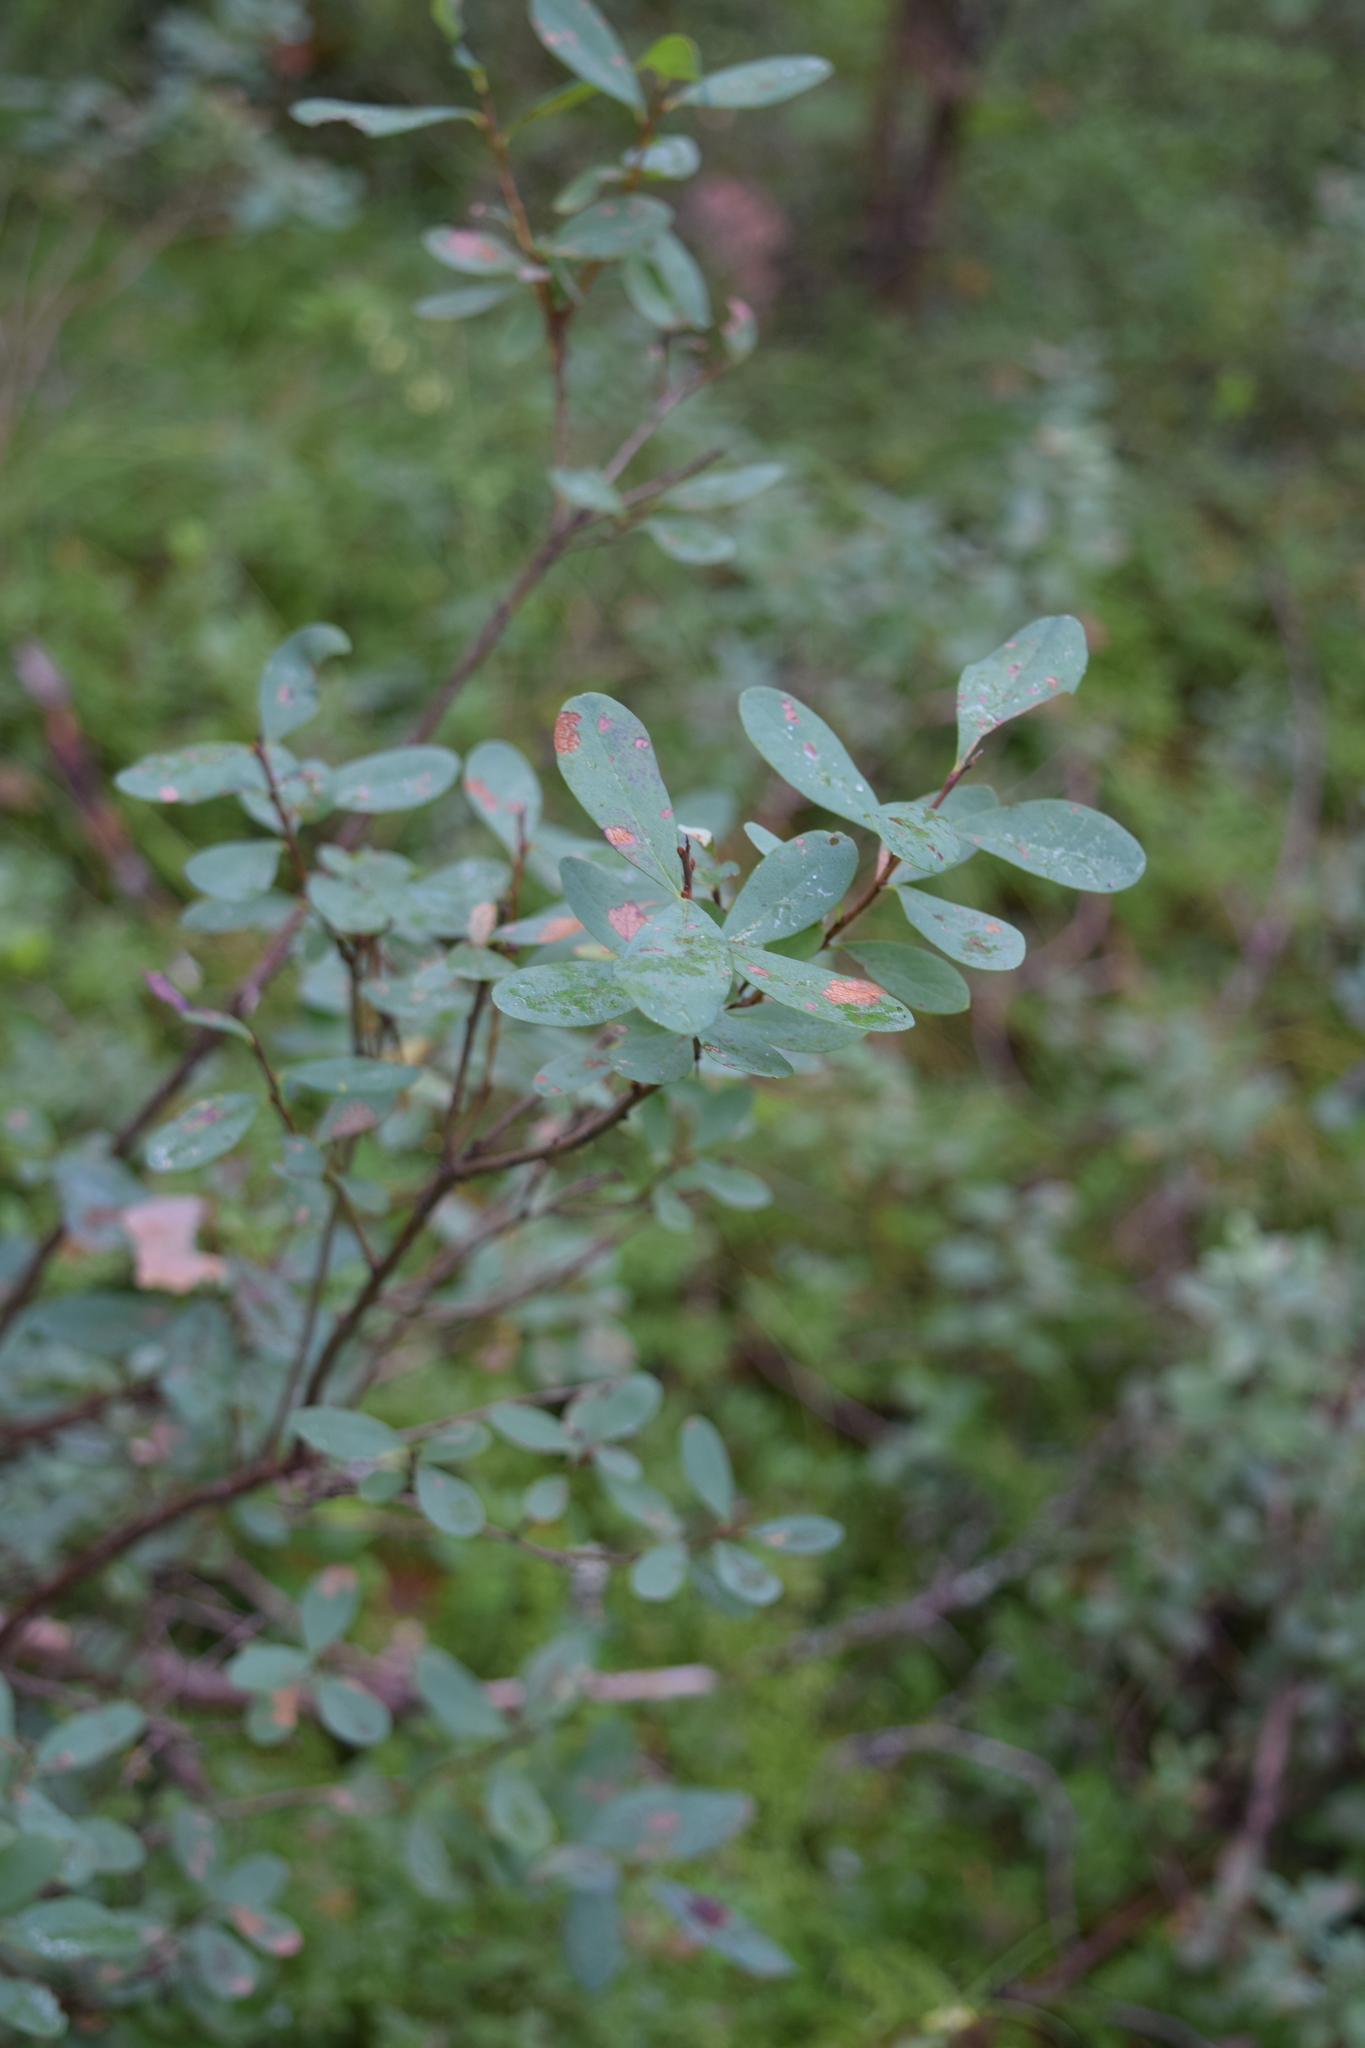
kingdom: Plantae
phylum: Tracheophyta
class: Magnoliopsida
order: Ericales
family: Ericaceae
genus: Vaccinium
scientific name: Vaccinium uliginosum
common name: Bog bilberry
